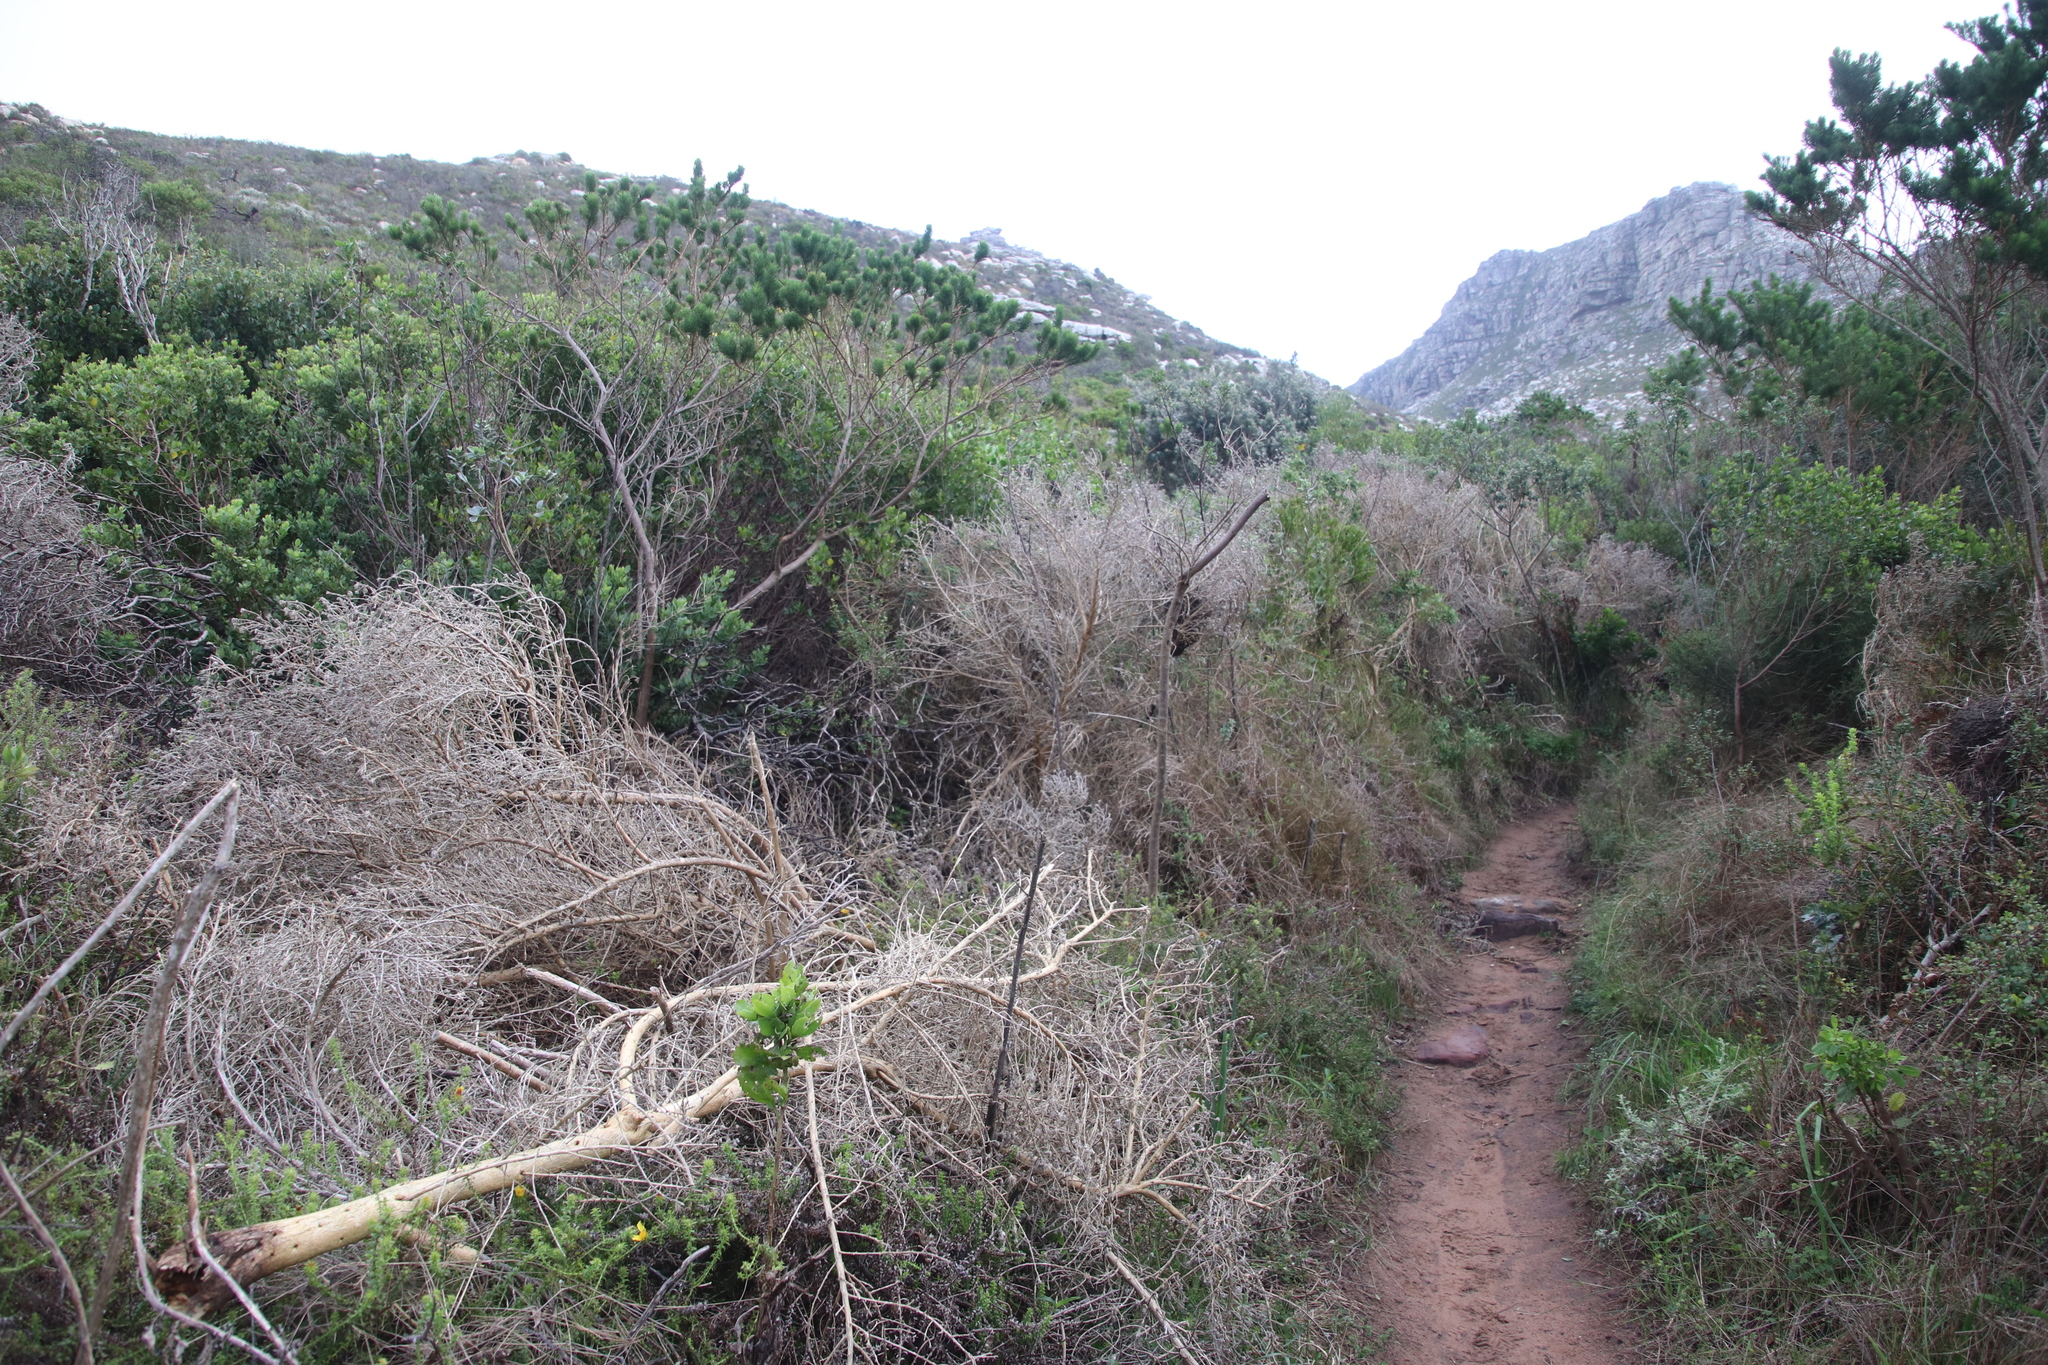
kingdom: Plantae
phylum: Tracheophyta
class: Magnoliopsida
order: Fabales
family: Fabaceae
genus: Aspalathus
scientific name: Aspalathus chenopoda
